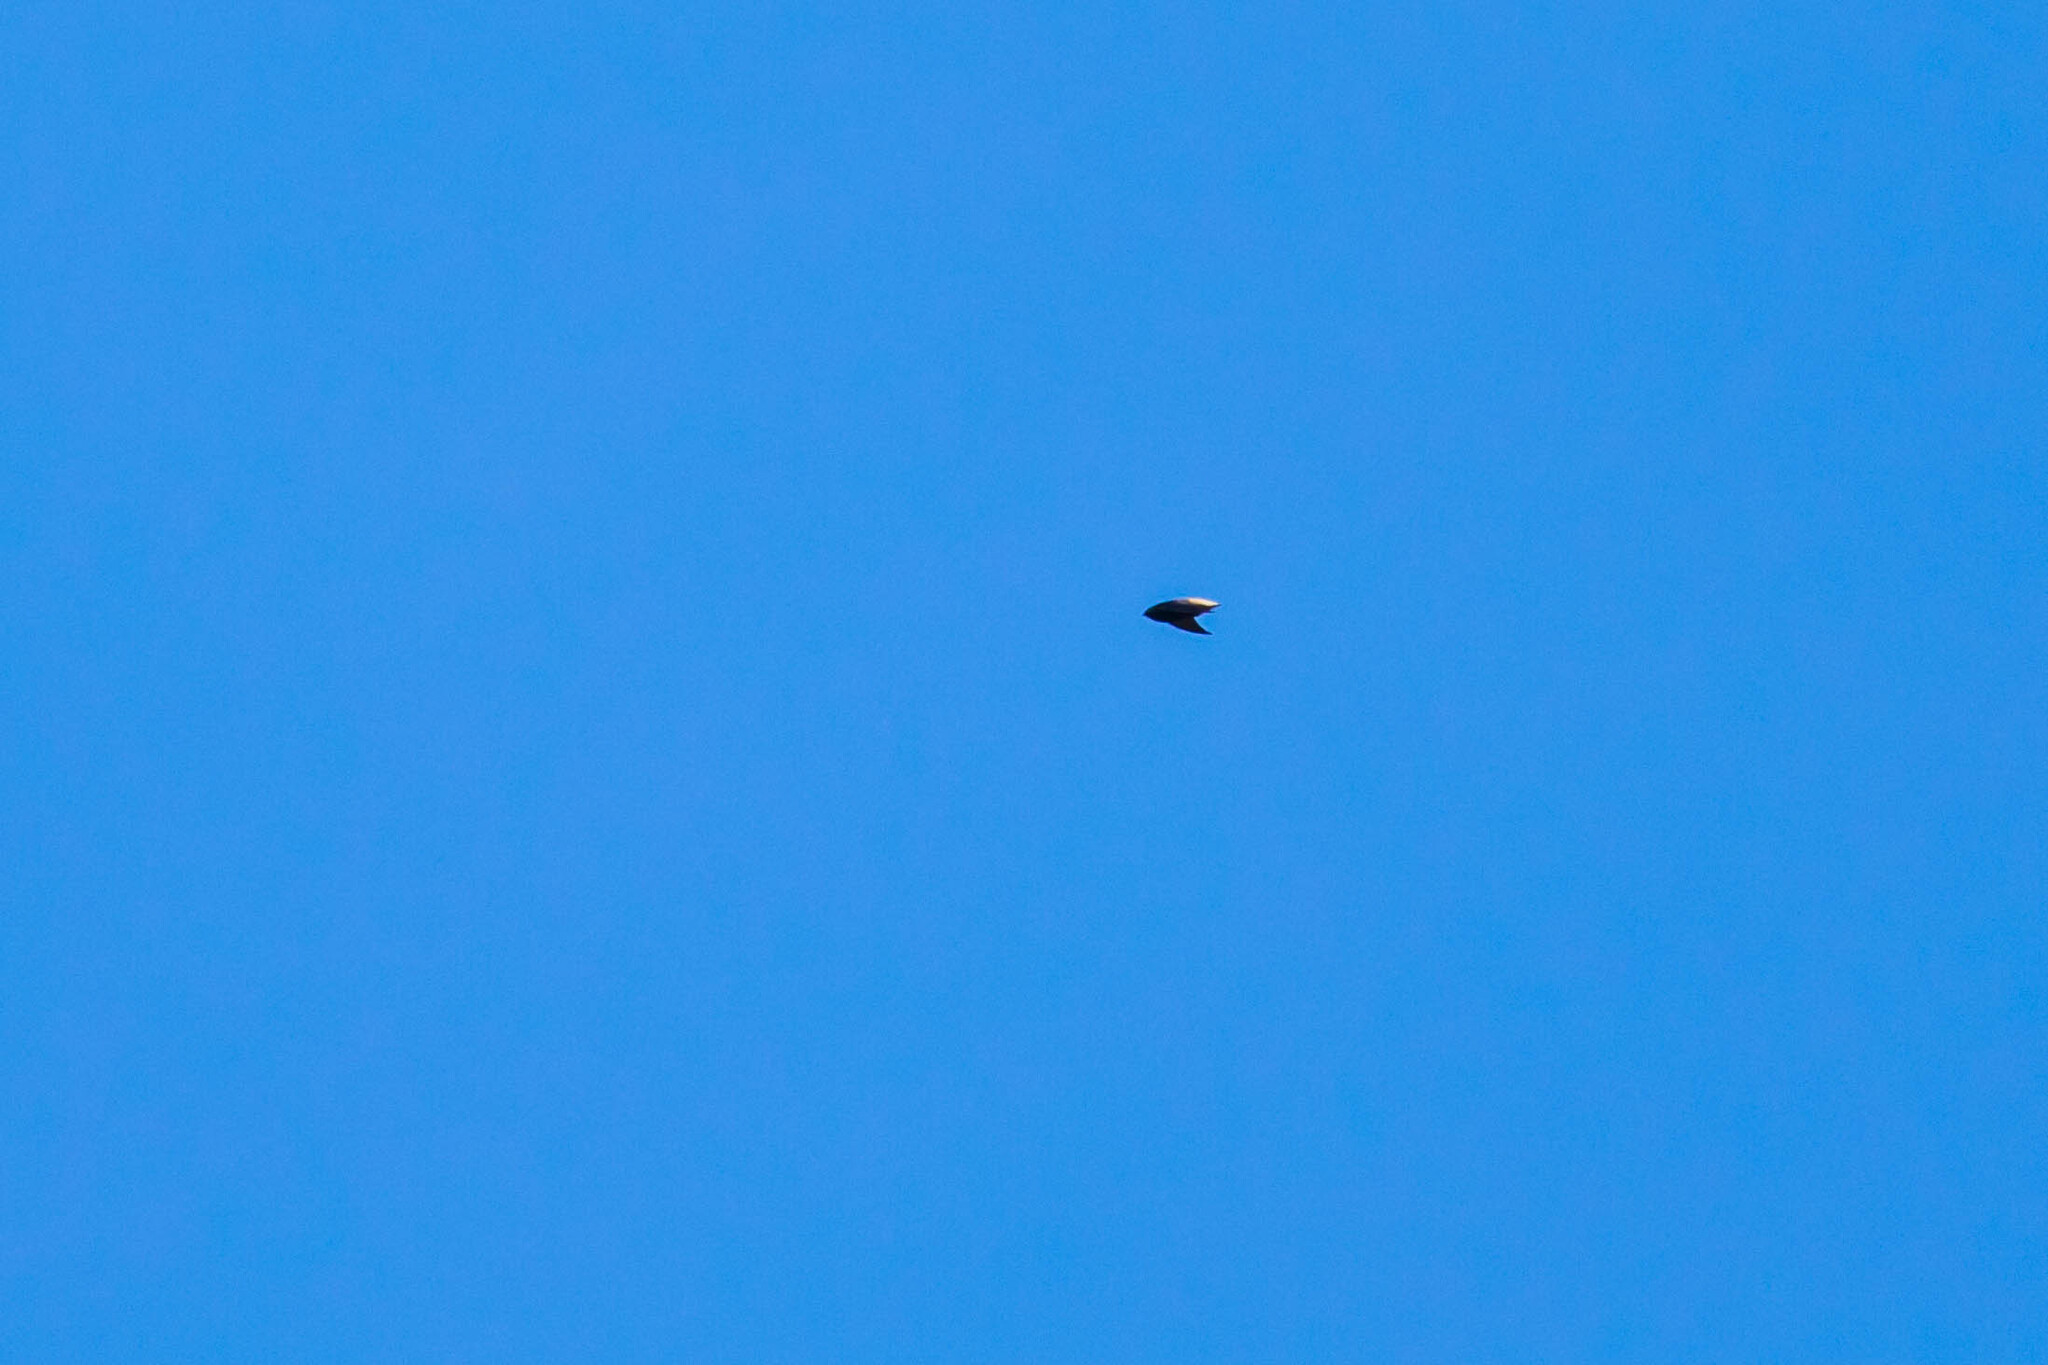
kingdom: Animalia
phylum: Chordata
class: Aves
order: Apodiformes
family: Apodidae
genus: Chaetura
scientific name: Chaetura brachyura
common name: Short-tailed swift
